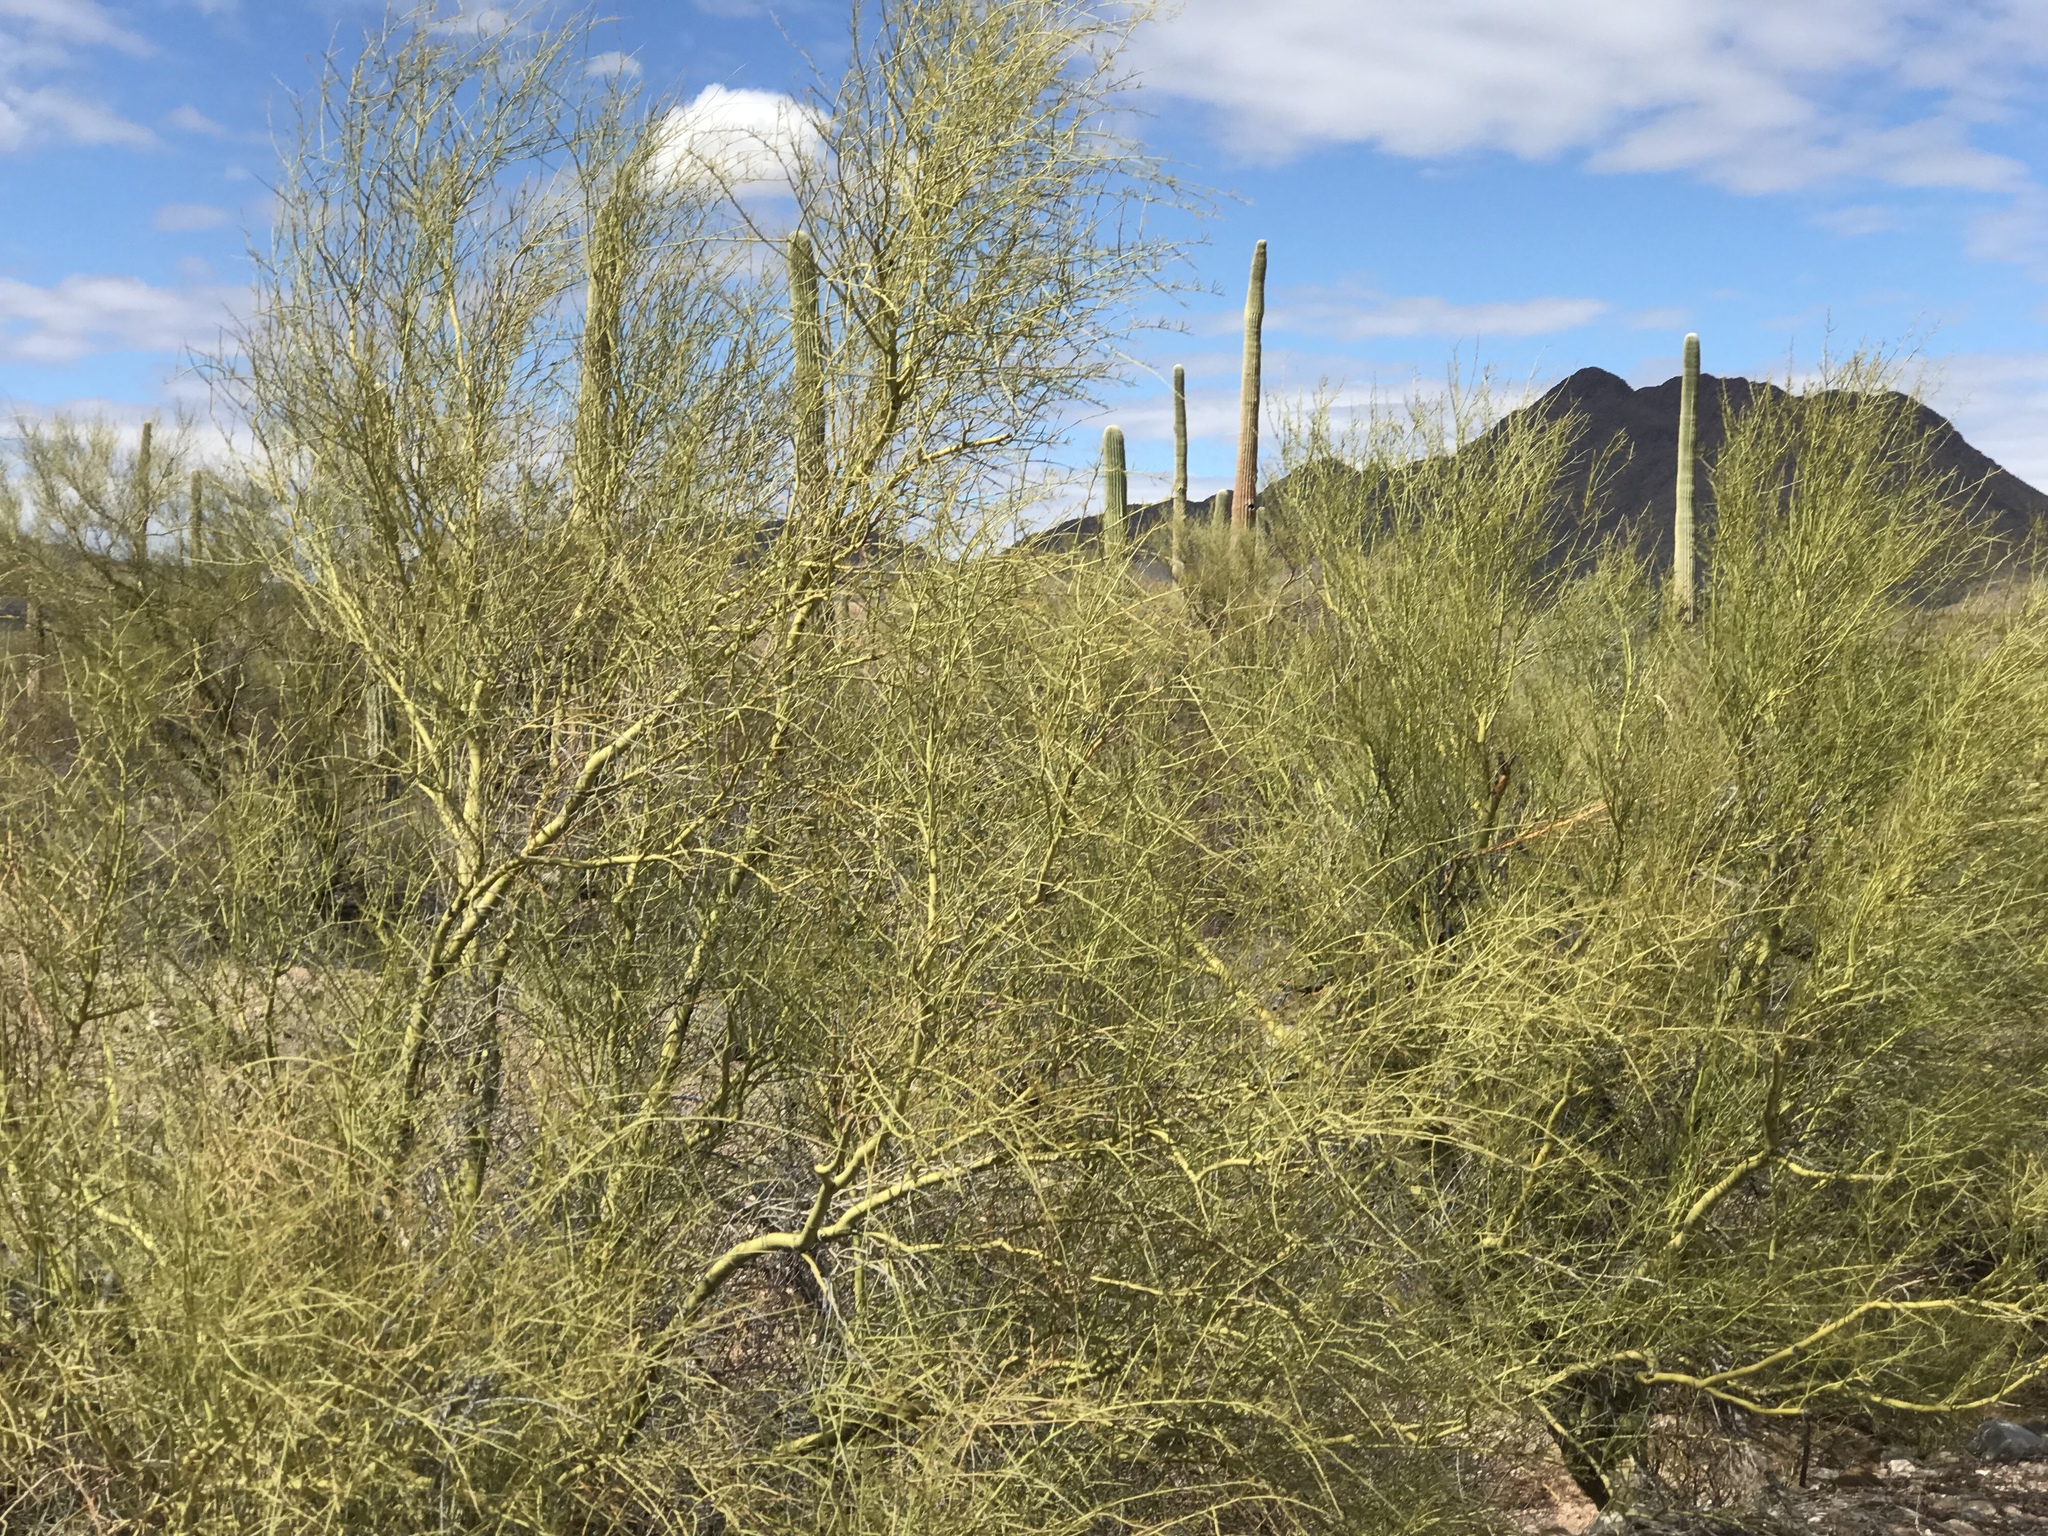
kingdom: Plantae
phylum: Tracheophyta
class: Magnoliopsida
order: Fabales
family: Fabaceae
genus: Parkinsonia
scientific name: Parkinsonia microphylla
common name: Yellow paloverde
